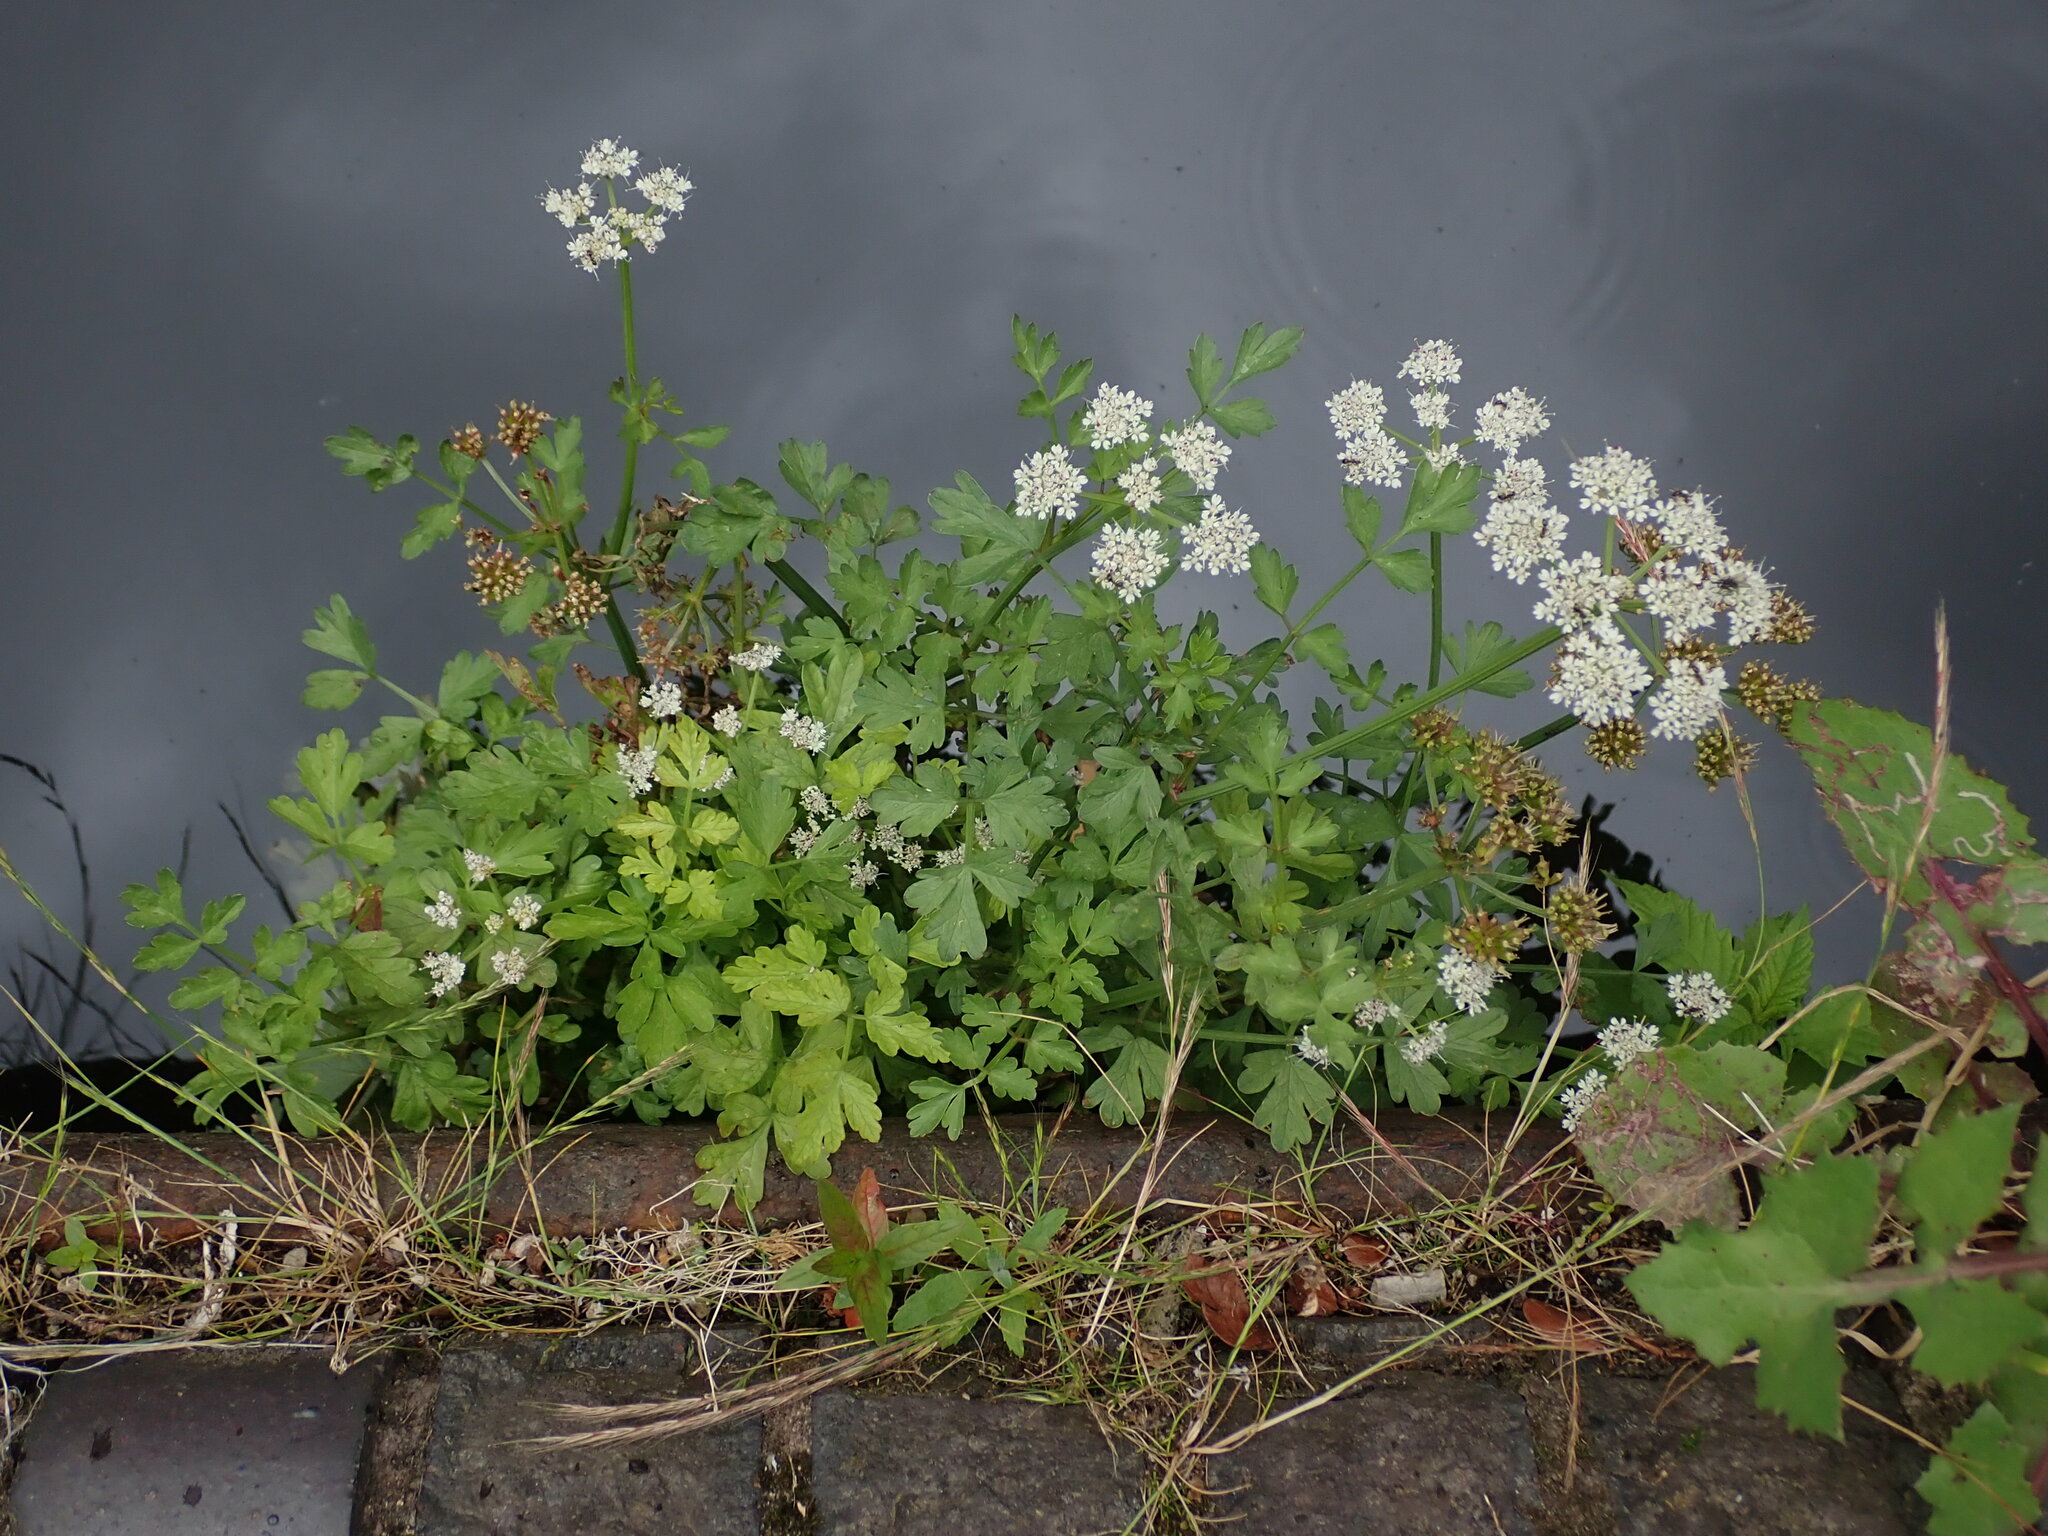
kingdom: Plantae
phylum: Tracheophyta
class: Magnoliopsida
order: Apiales
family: Apiaceae
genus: Oenanthe
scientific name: Oenanthe crocata
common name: Hemlock water-dropwort
